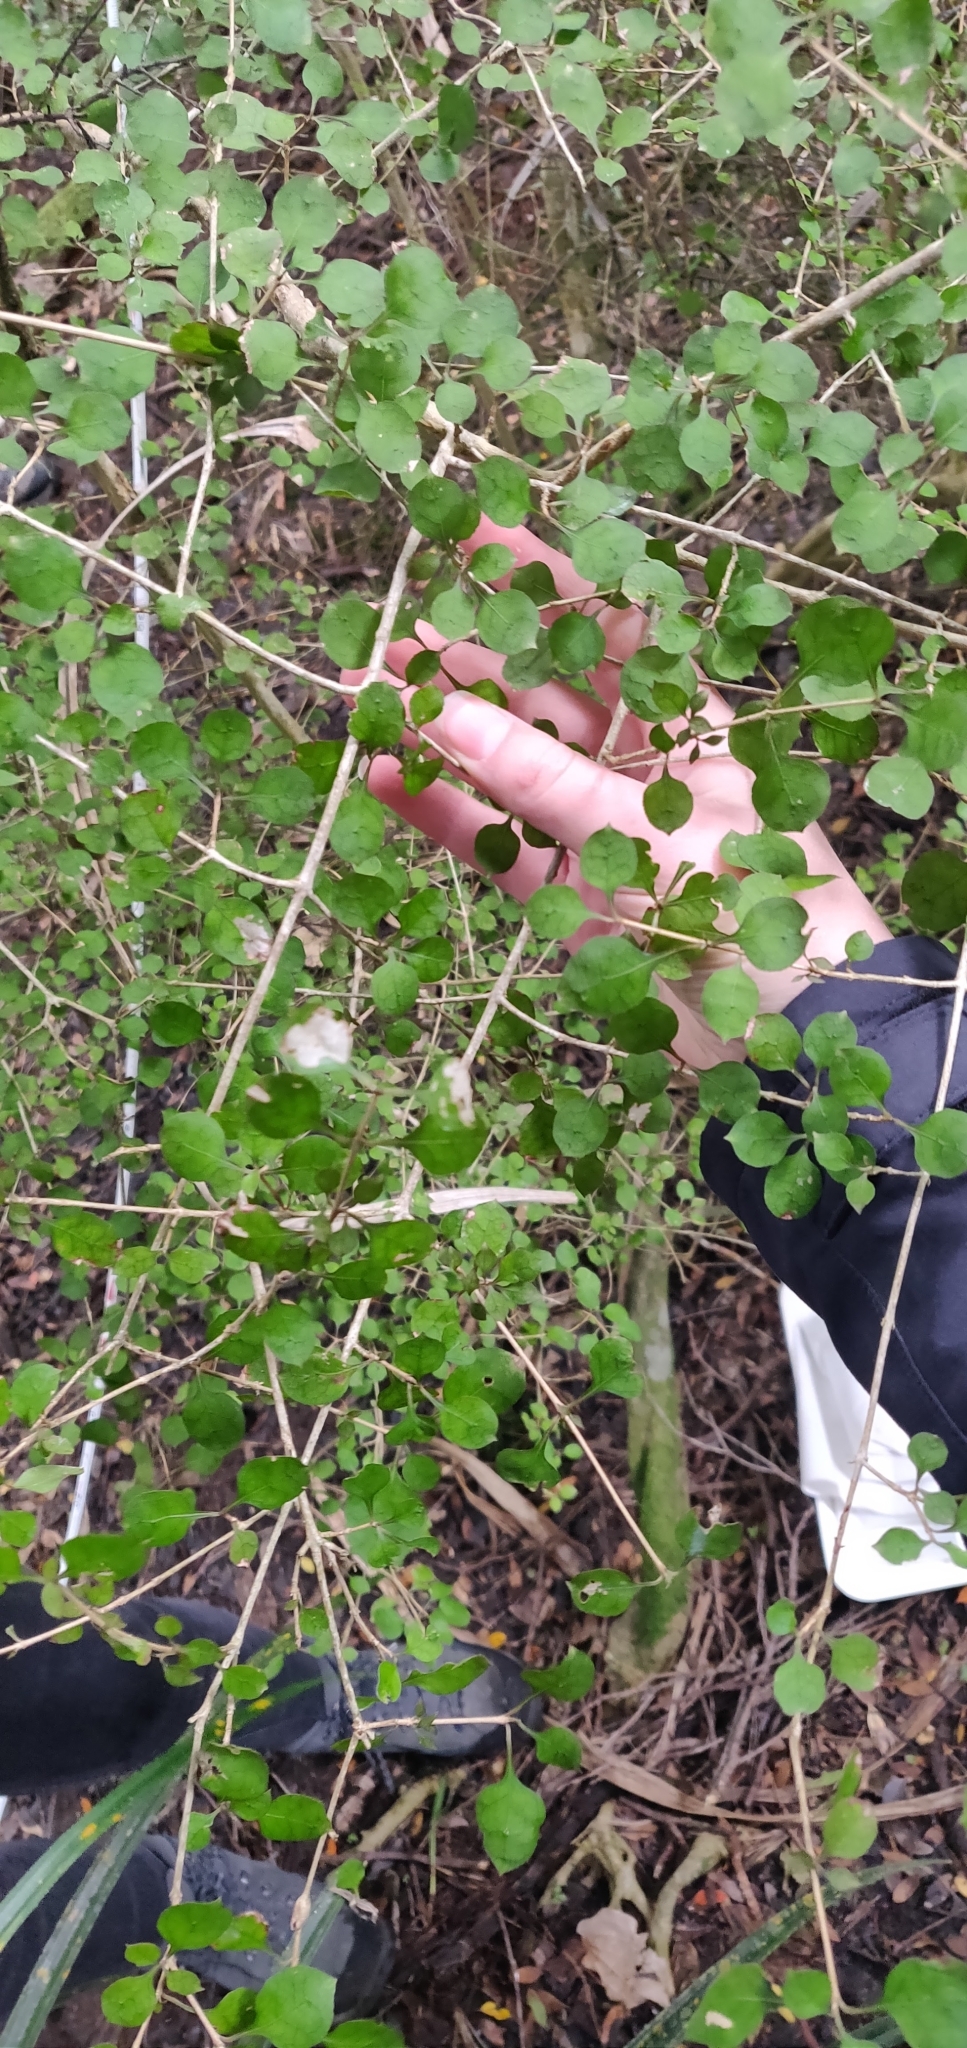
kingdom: Plantae
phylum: Tracheophyta
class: Magnoliopsida
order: Gentianales
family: Rubiaceae
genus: Coprosma
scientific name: Coprosma areolata
